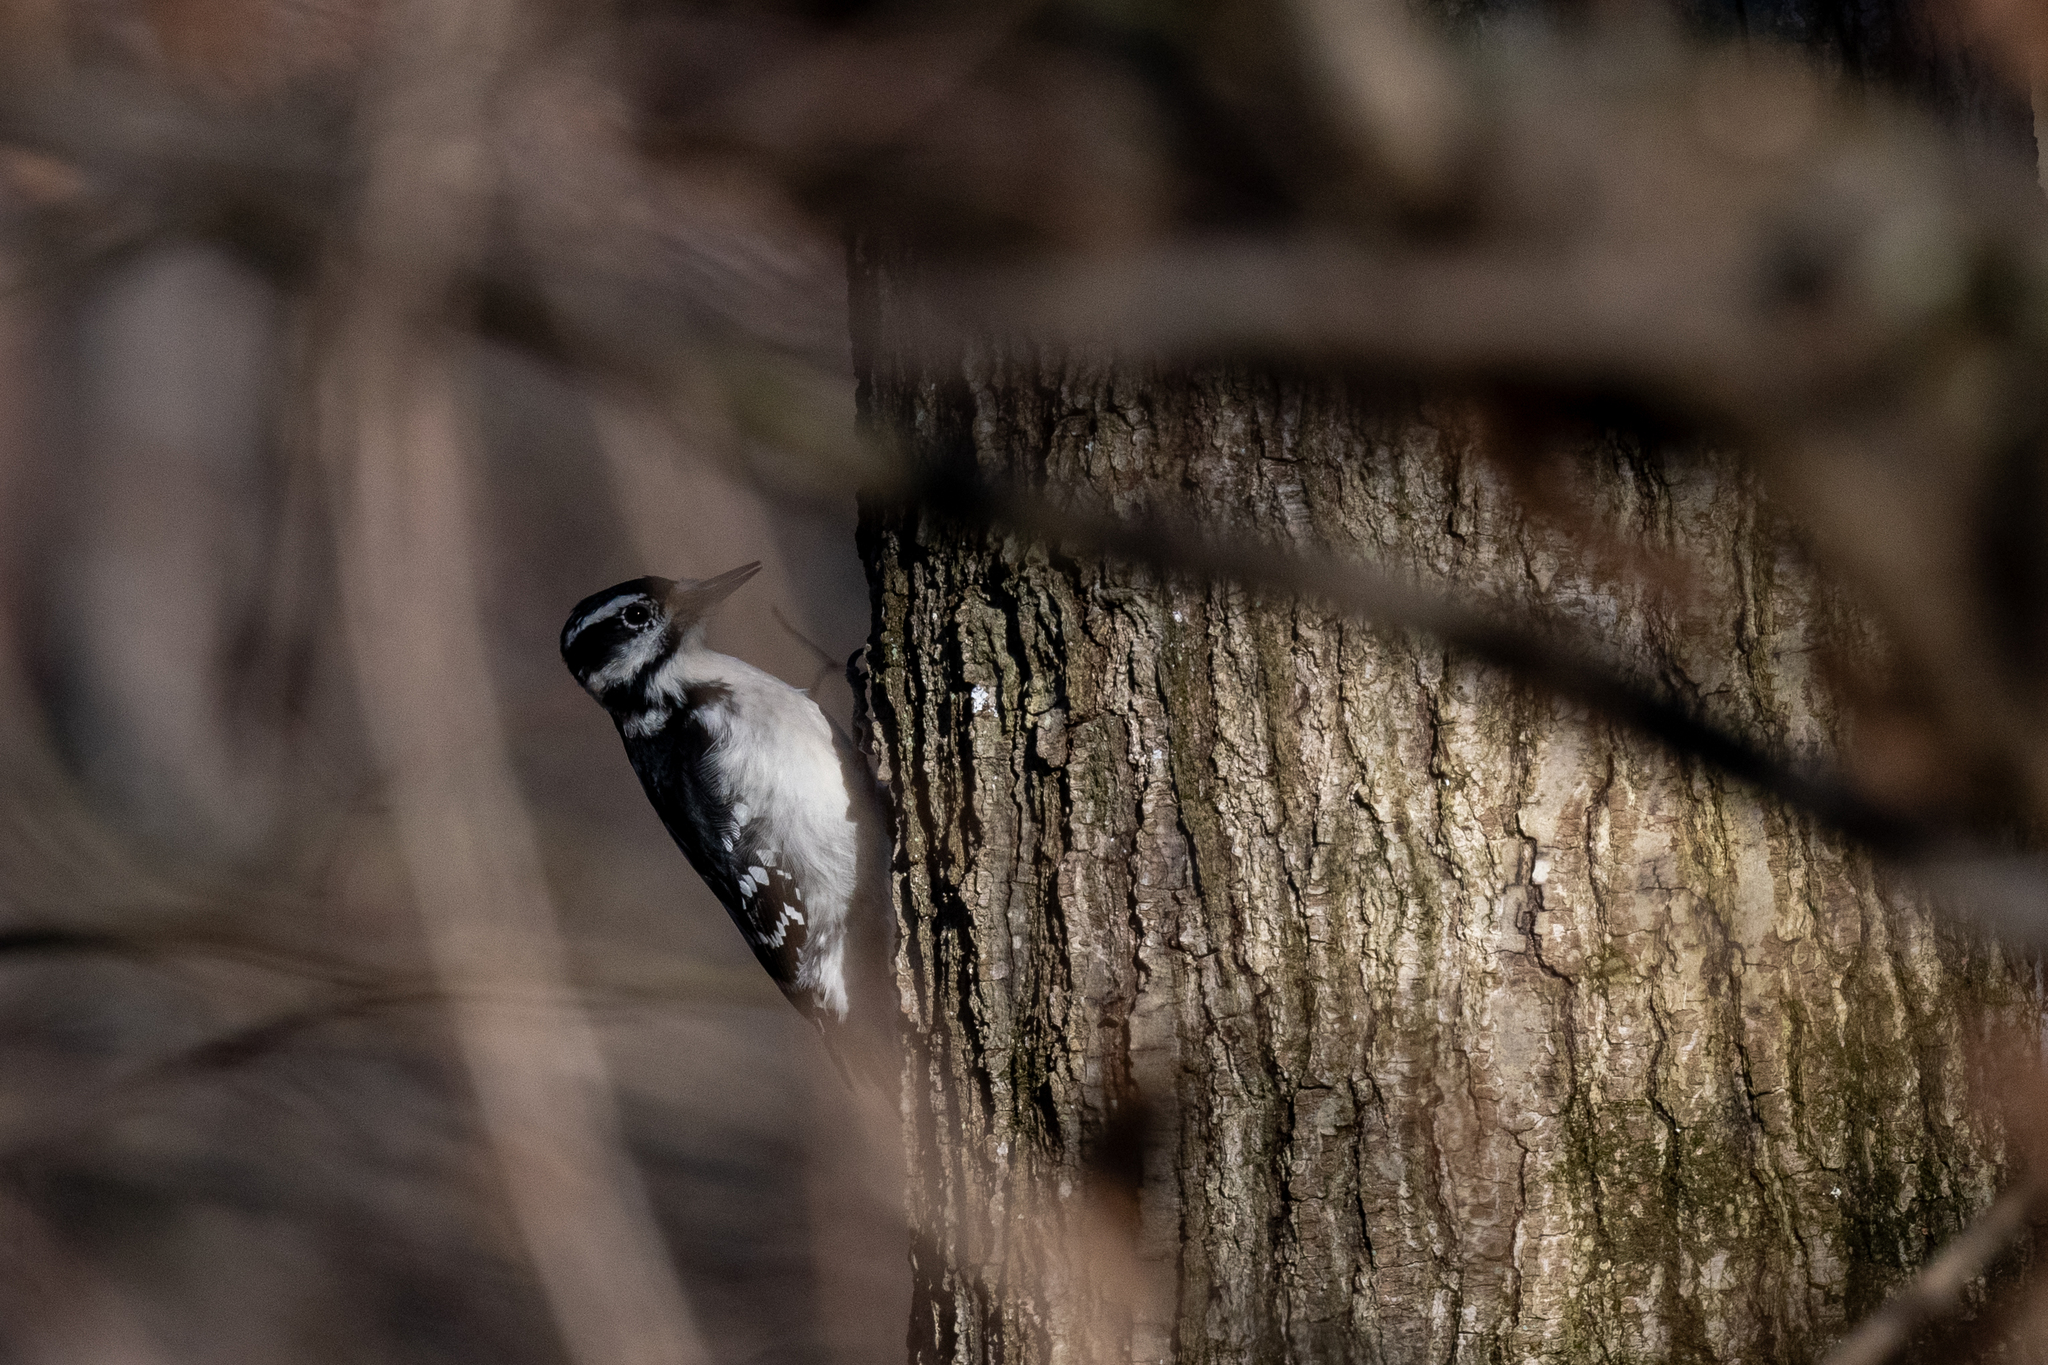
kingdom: Animalia
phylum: Chordata
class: Aves
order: Piciformes
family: Picidae
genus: Leuconotopicus
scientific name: Leuconotopicus villosus
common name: Hairy woodpecker
